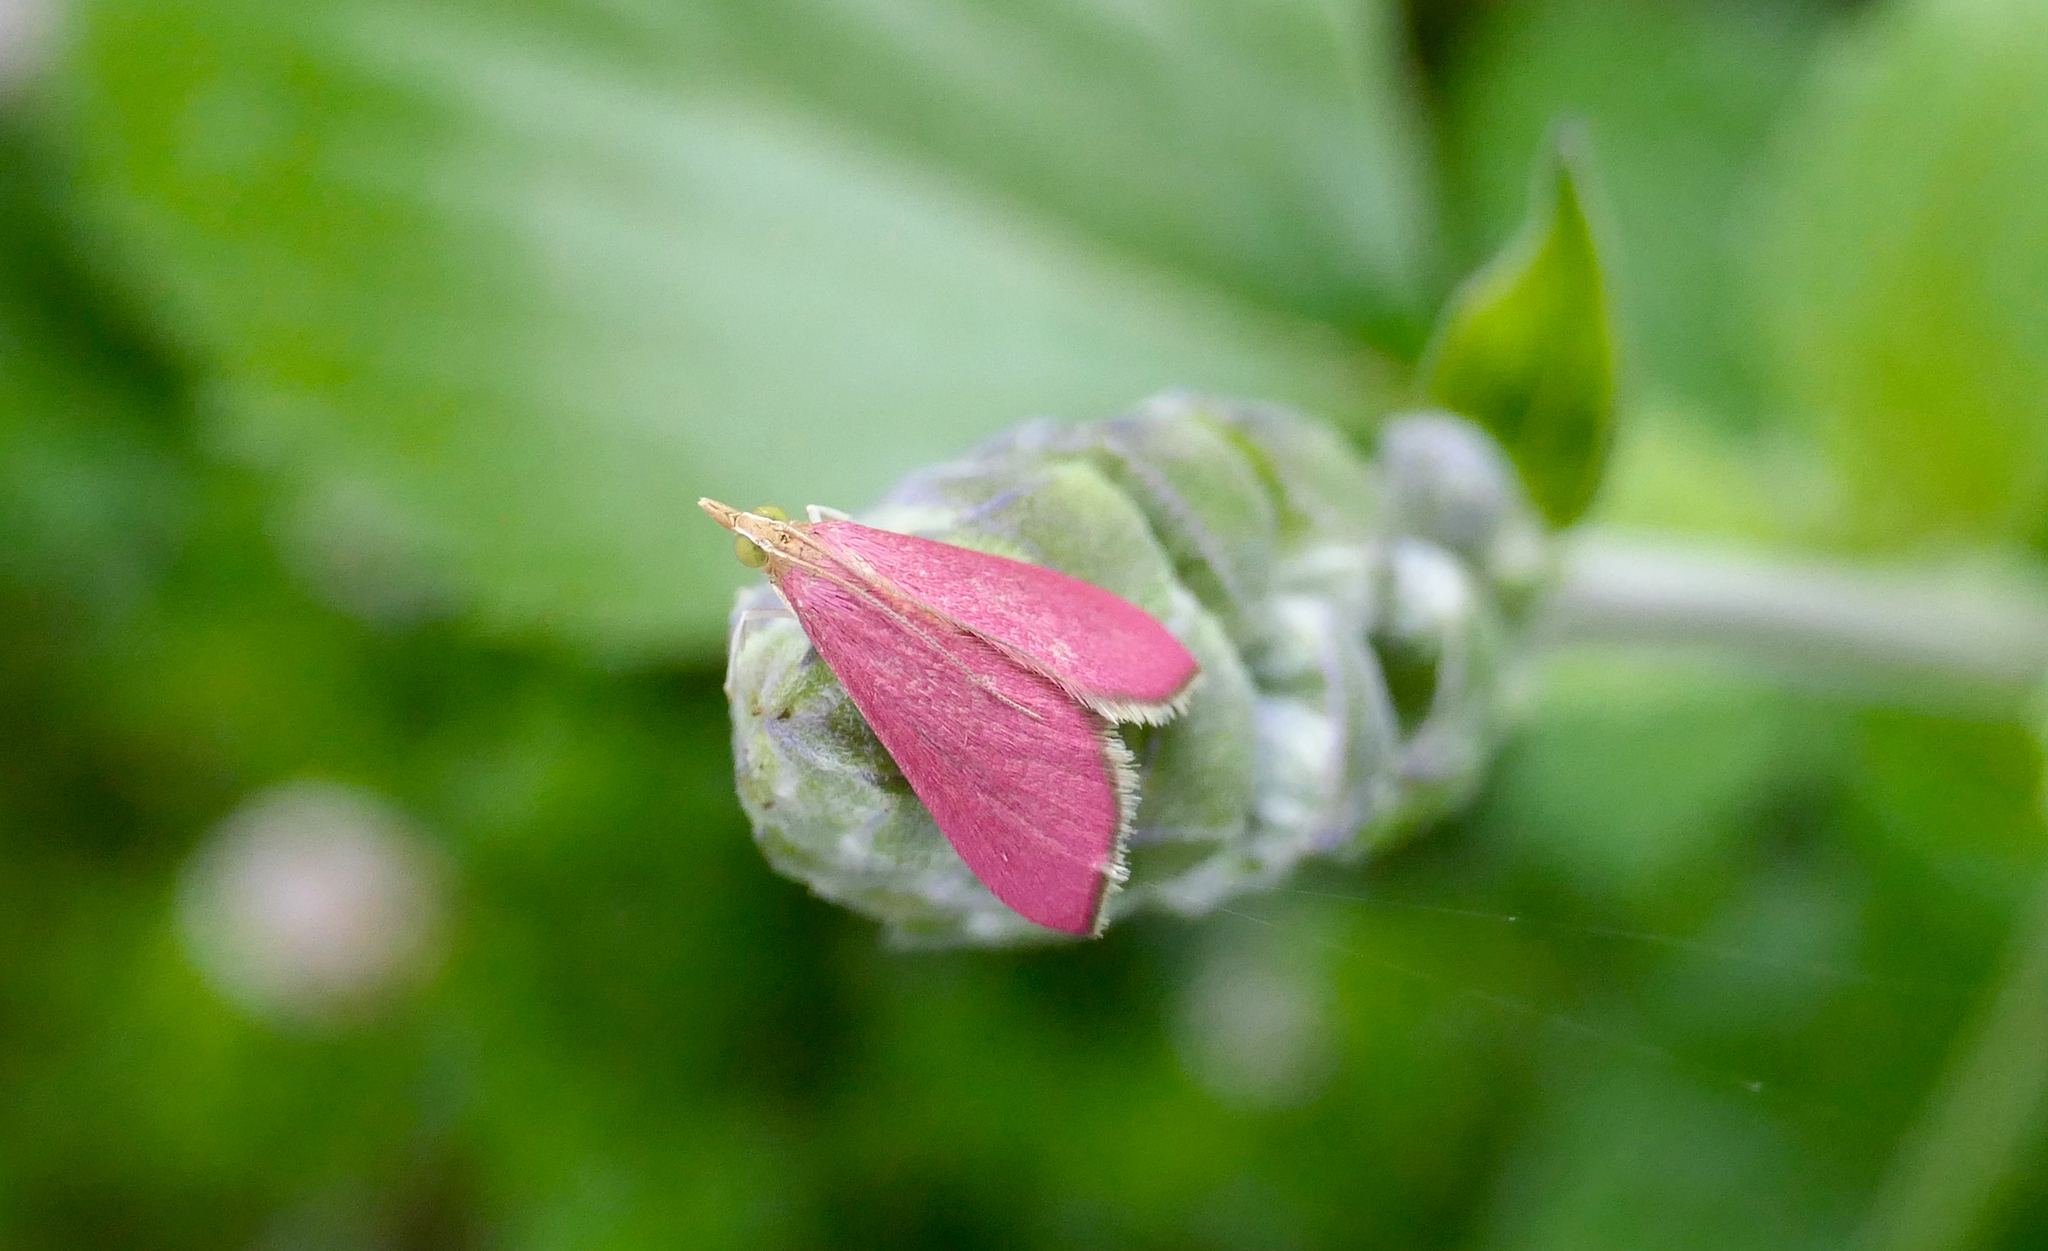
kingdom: Animalia
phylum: Arthropoda
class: Insecta
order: Lepidoptera
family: Crambidae
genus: Pyrausta
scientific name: Pyrausta inornatalis
